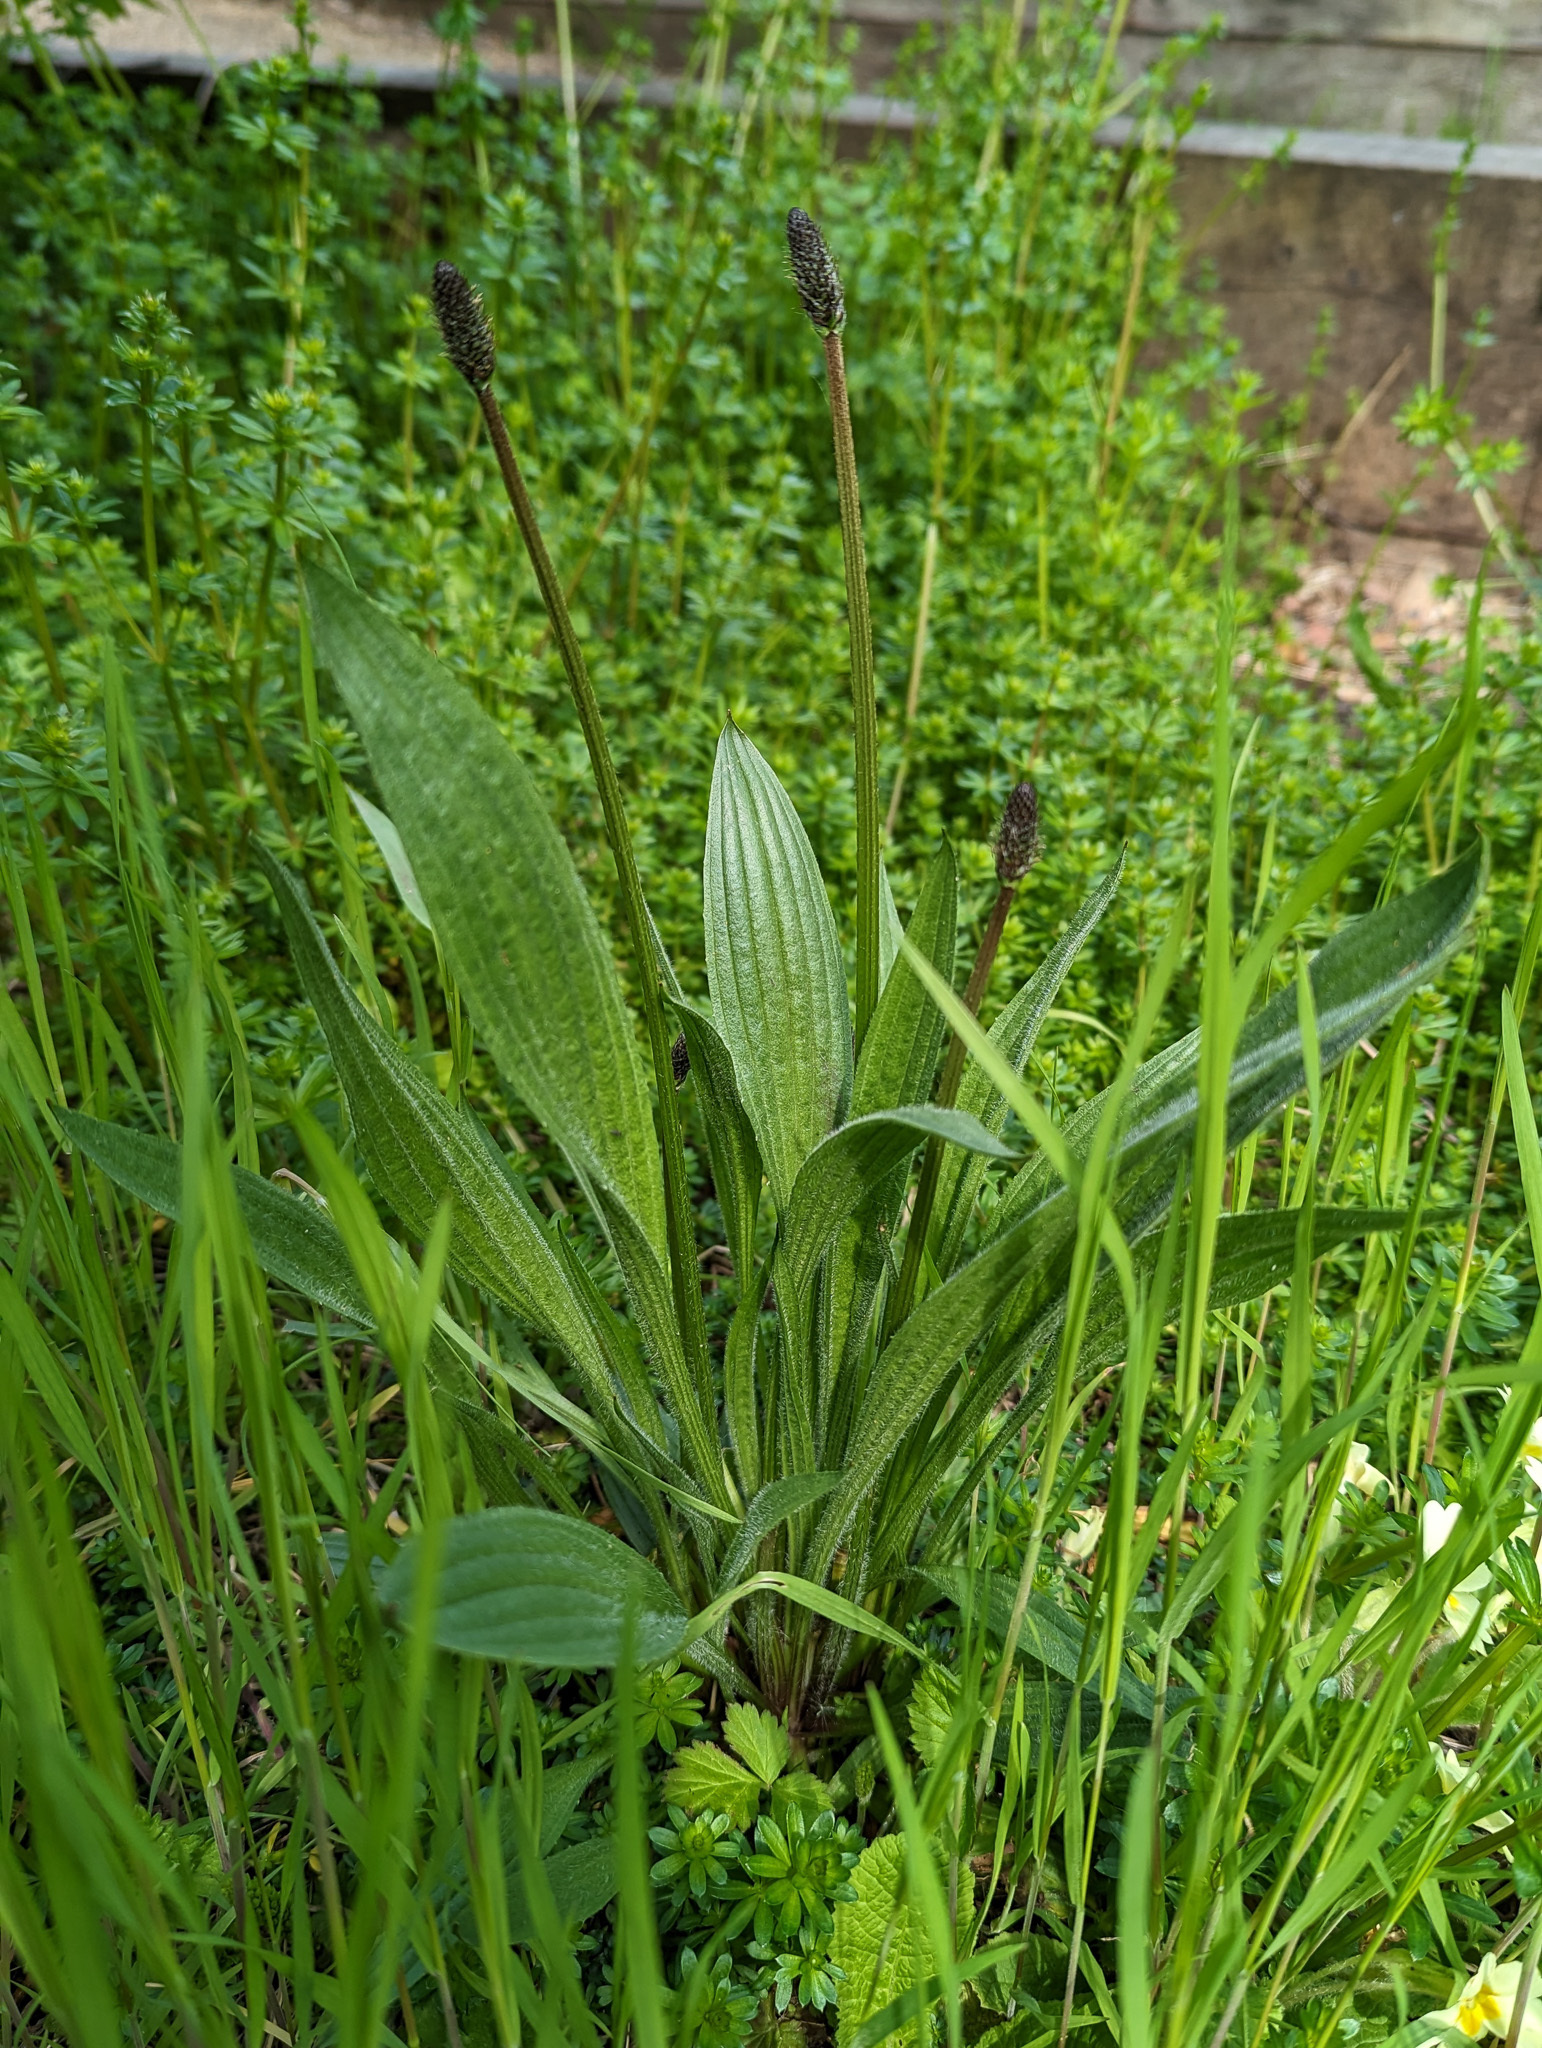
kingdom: Plantae
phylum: Tracheophyta
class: Magnoliopsida
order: Lamiales
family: Plantaginaceae
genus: Plantago
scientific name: Plantago lanceolata
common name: Ribwort plantain
